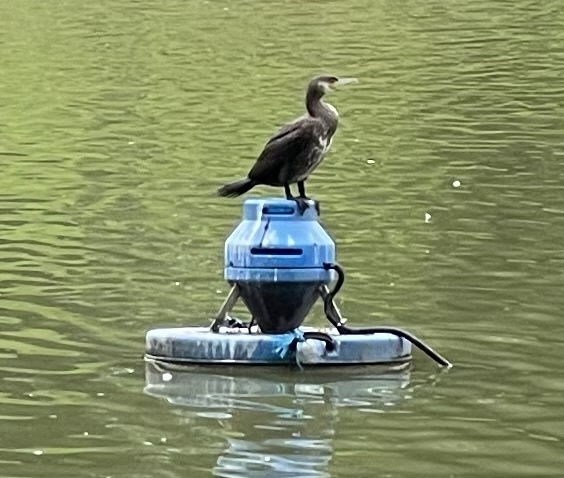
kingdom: Animalia
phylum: Chordata
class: Aves
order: Suliformes
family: Phalacrocoracidae
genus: Phalacrocorax
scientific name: Phalacrocorax carbo
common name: Great cormorant
